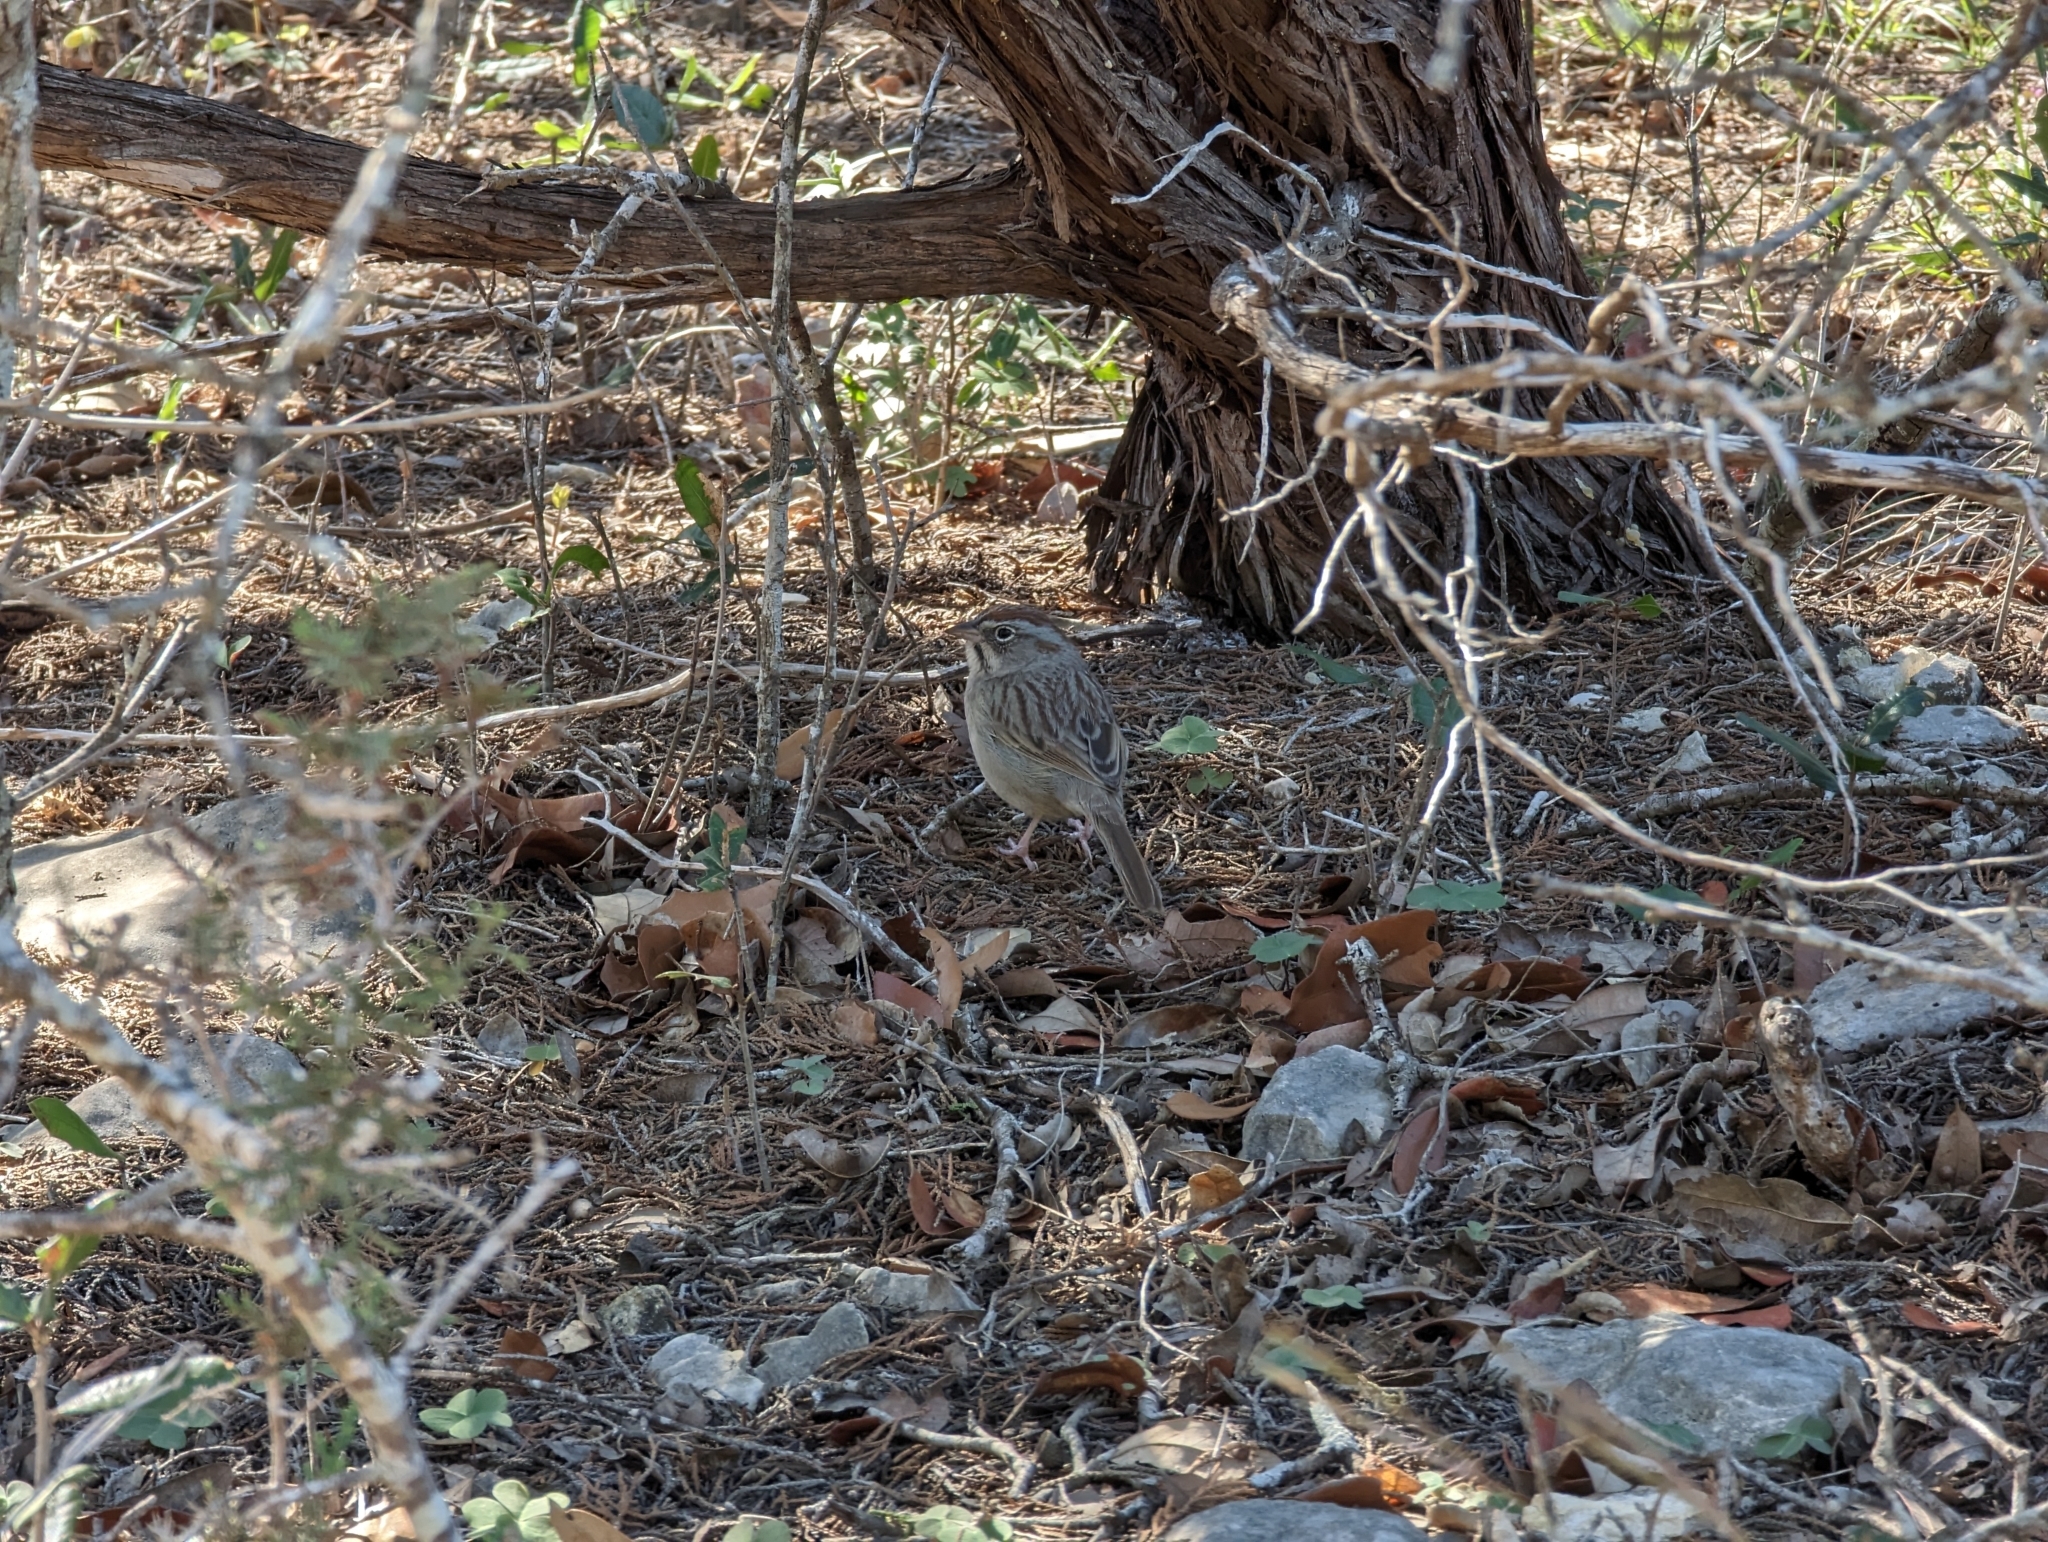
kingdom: Animalia
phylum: Chordata
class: Aves
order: Passeriformes
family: Passerellidae
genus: Aimophila
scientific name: Aimophila ruficeps
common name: Rufous-crowned sparrow
